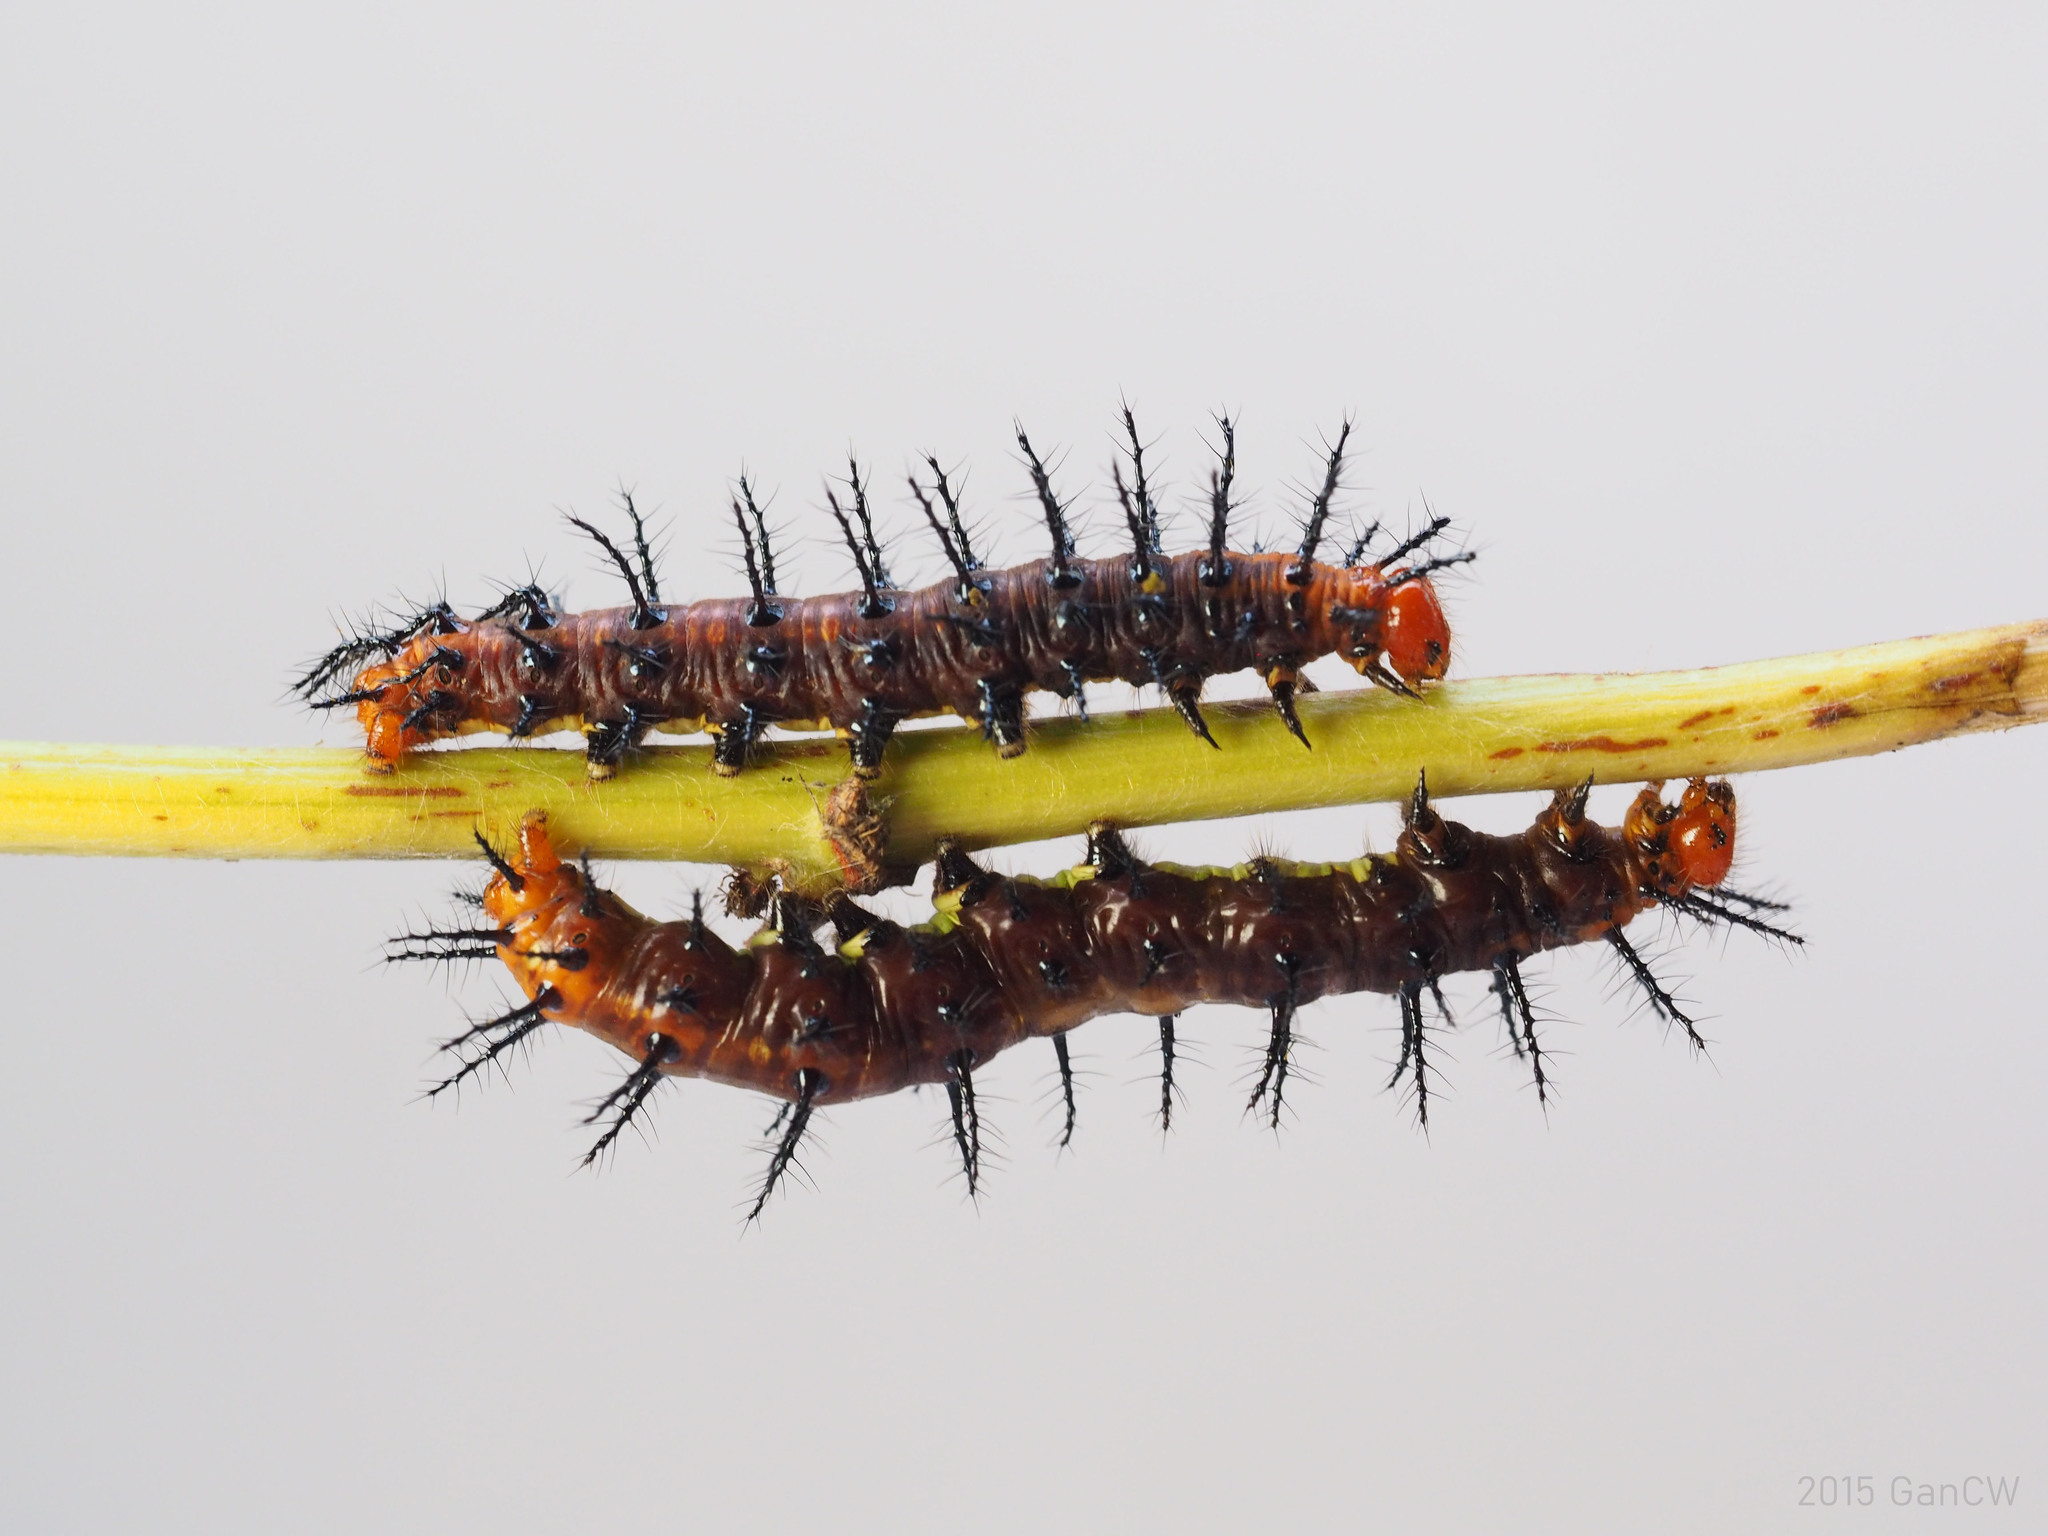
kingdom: Animalia
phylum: Arthropoda
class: Insecta
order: Lepidoptera
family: Nymphalidae
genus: Acraea
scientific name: Acraea terpsicore
